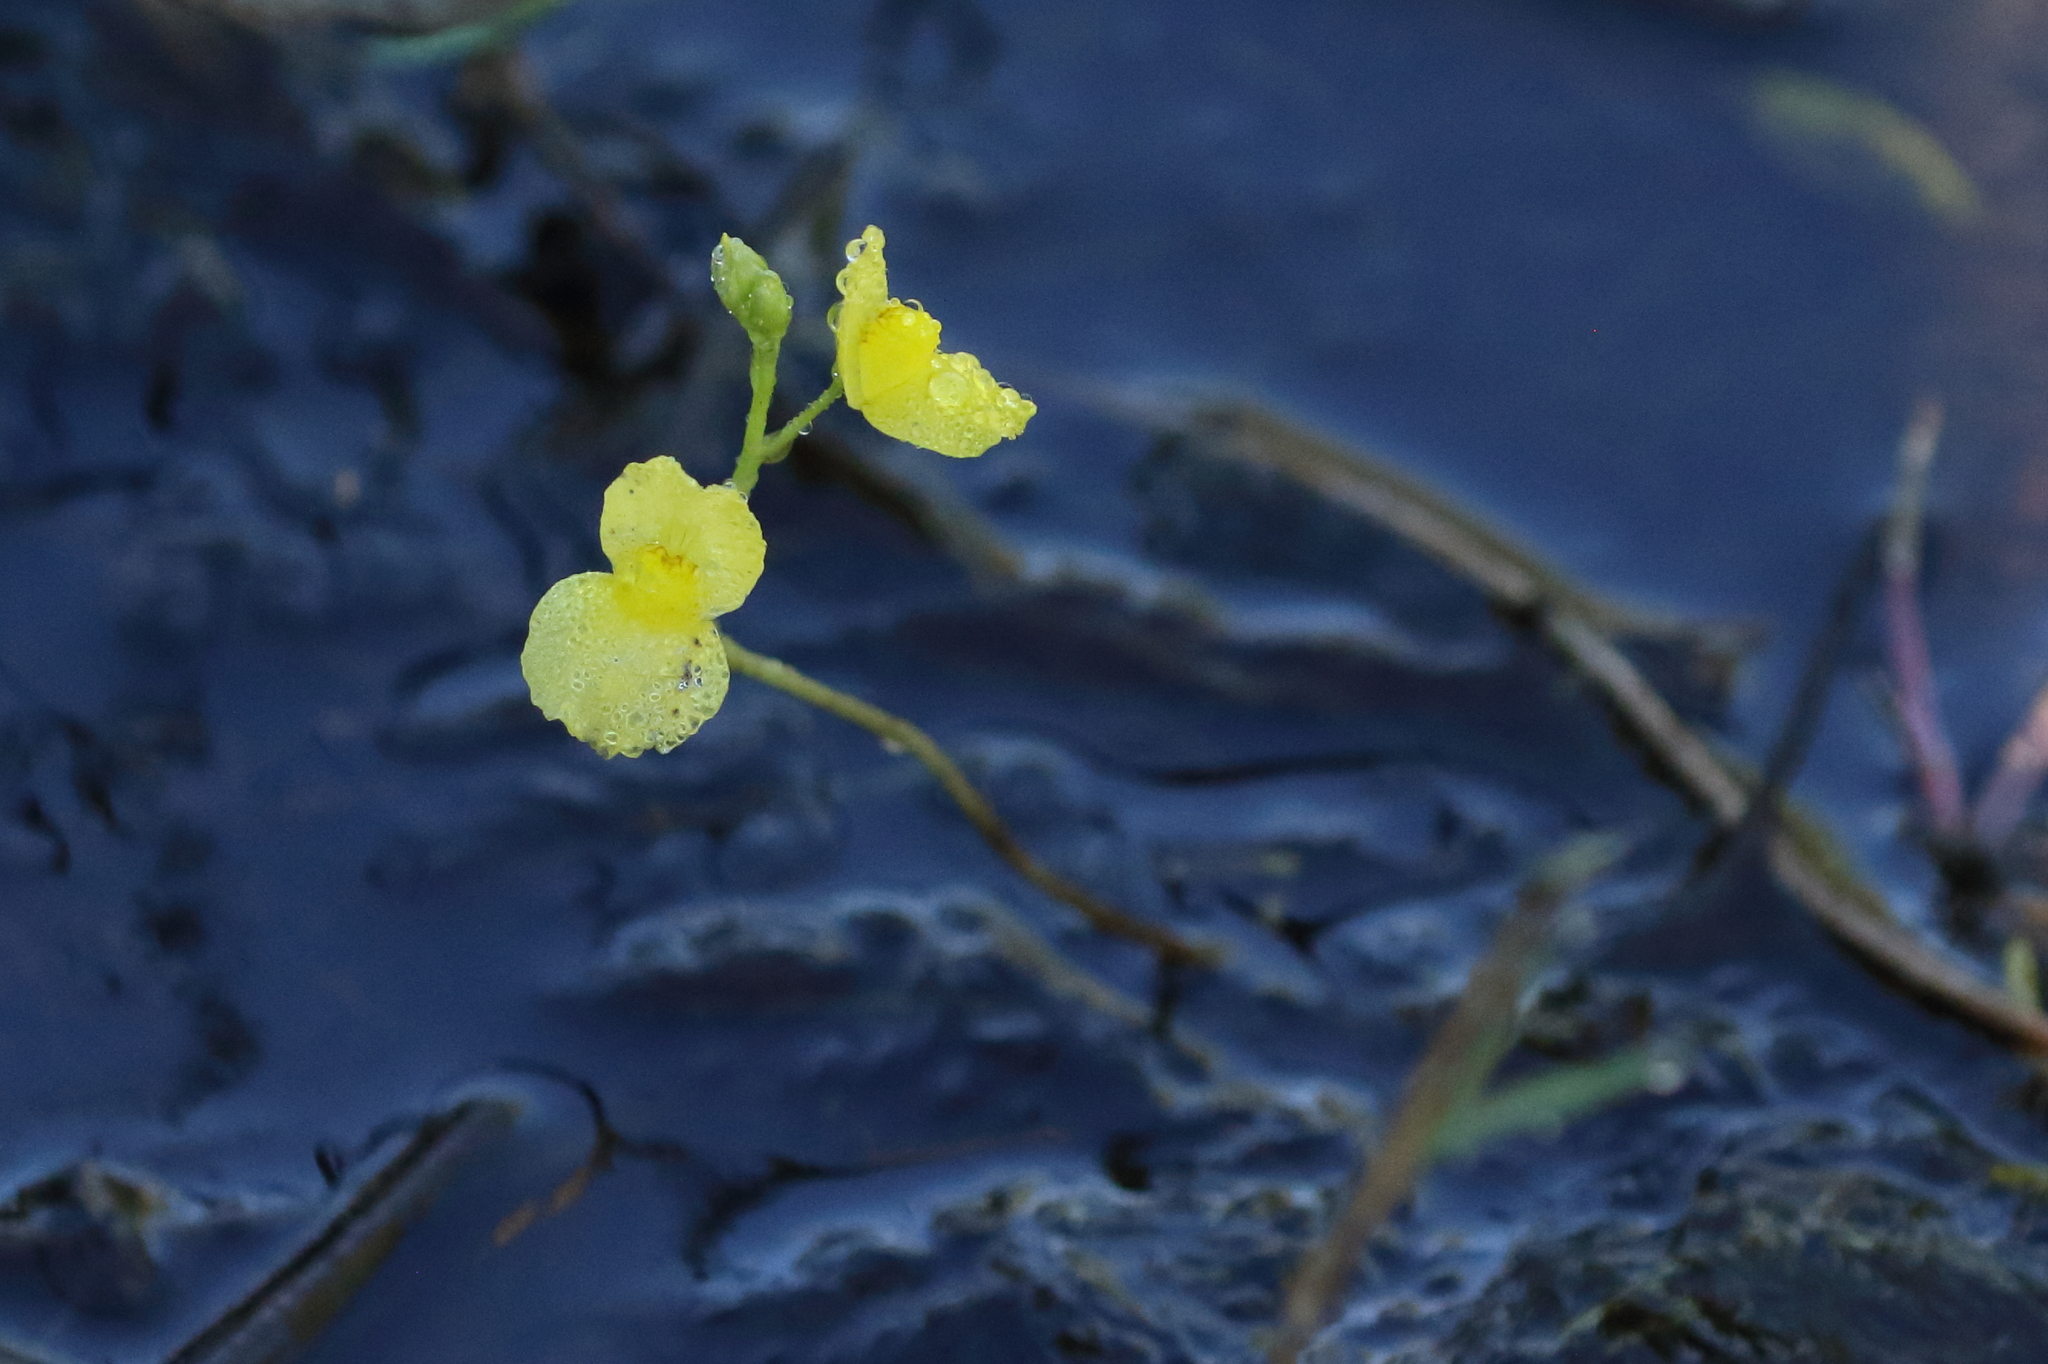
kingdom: Plantae
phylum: Tracheophyta
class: Magnoliopsida
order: Lamiales
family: Lentibulariaceae
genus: Utricularia
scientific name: Utricularia aurea
